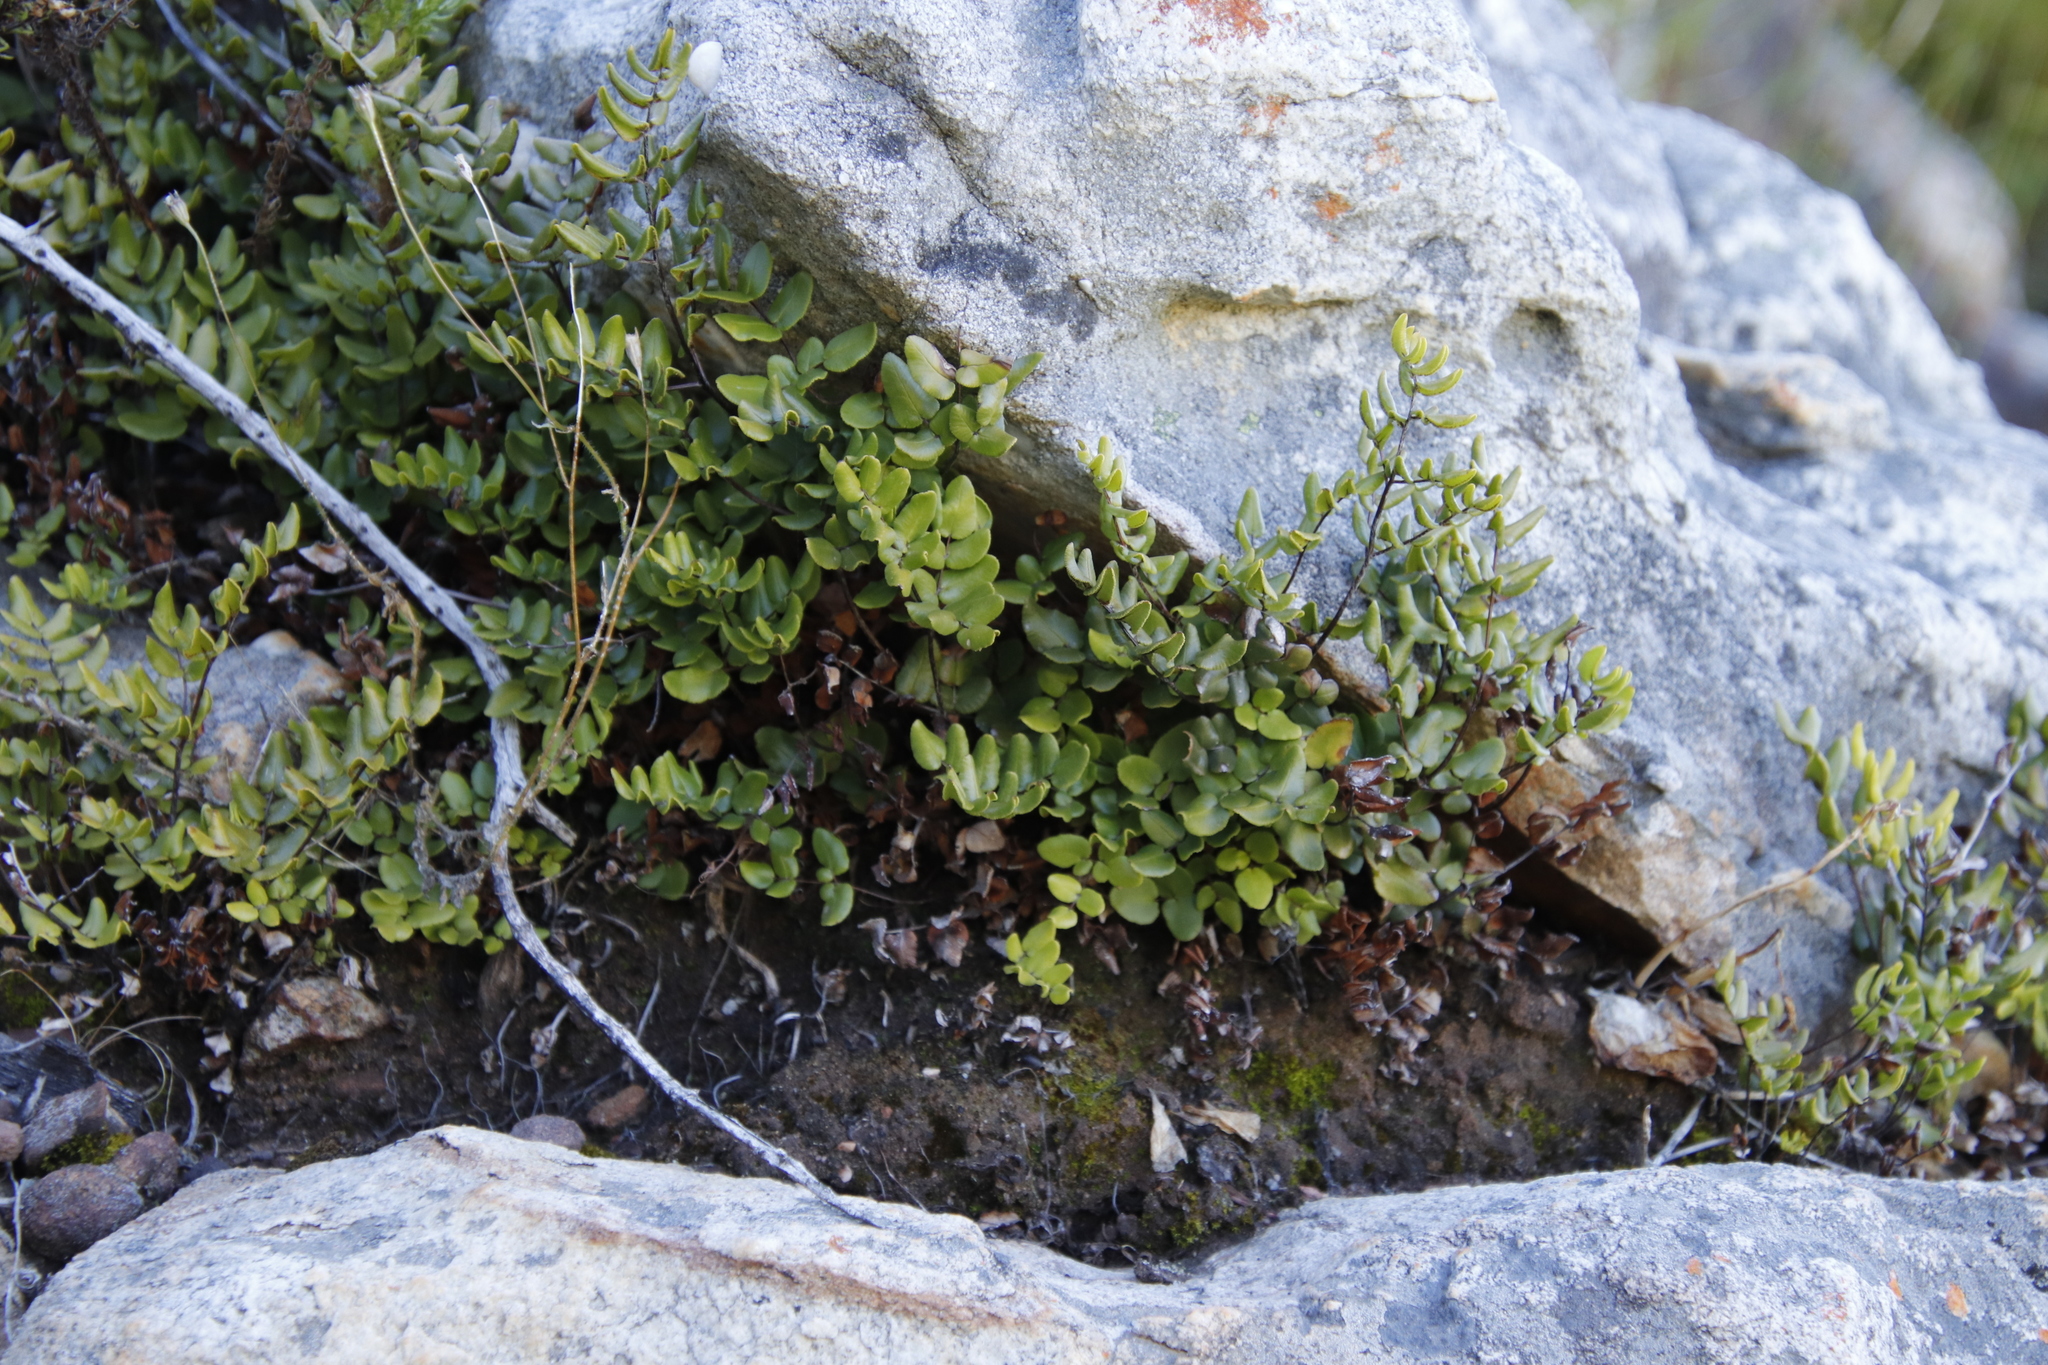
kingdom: Plantae
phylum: Tracheophyta
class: Polypodiopsida
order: Polypodiales
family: Pteridaceae
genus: Pellaea
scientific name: Pellaea pteroides
